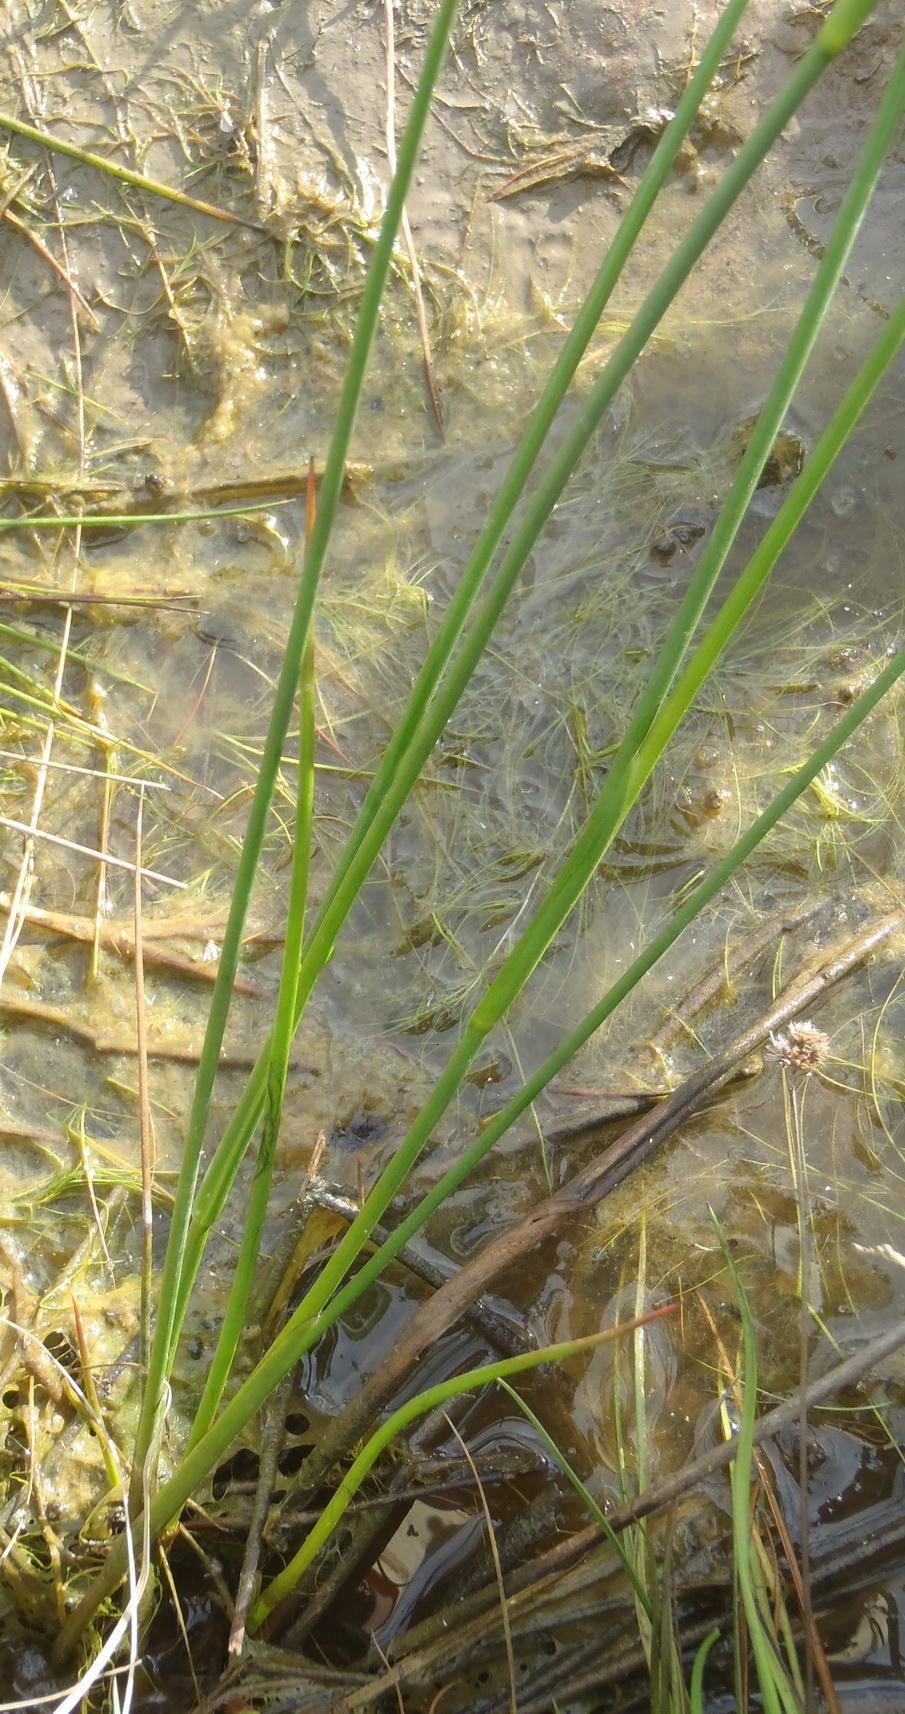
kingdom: Plantae
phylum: Tracheophyta
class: Liliopsida
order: Poales
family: Juncaceae
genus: Juncus
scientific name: Juncus oxycarpus
